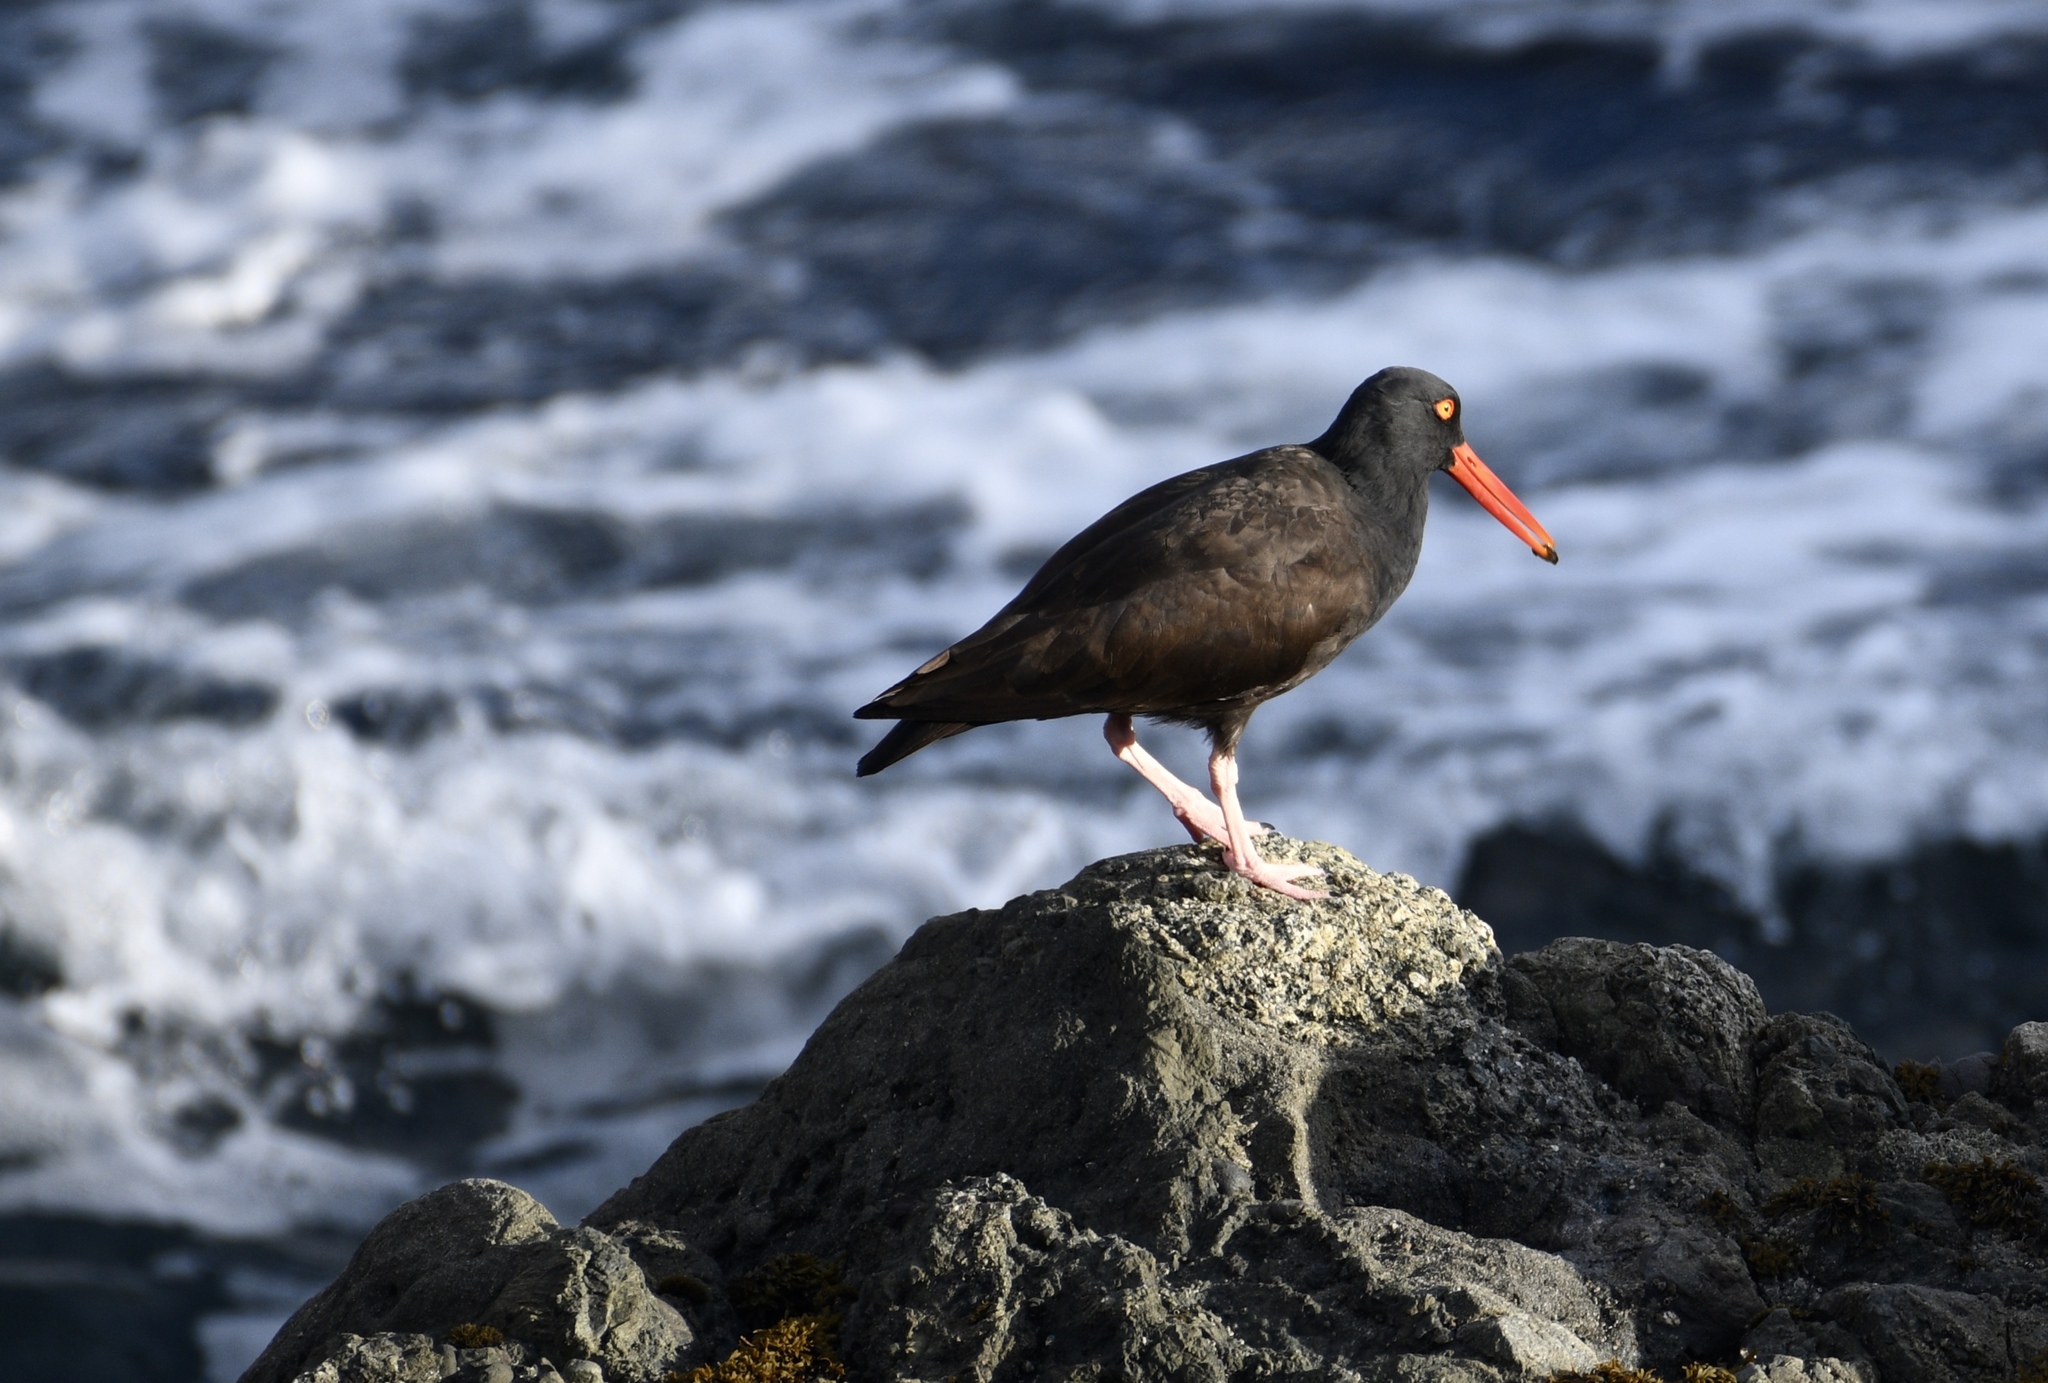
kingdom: Animalia
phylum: Chordata
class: Aves
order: Charadriiformes
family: Haematopodidae
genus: Haematopus
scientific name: Haematopus bachmani
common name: Black oystercatcher
